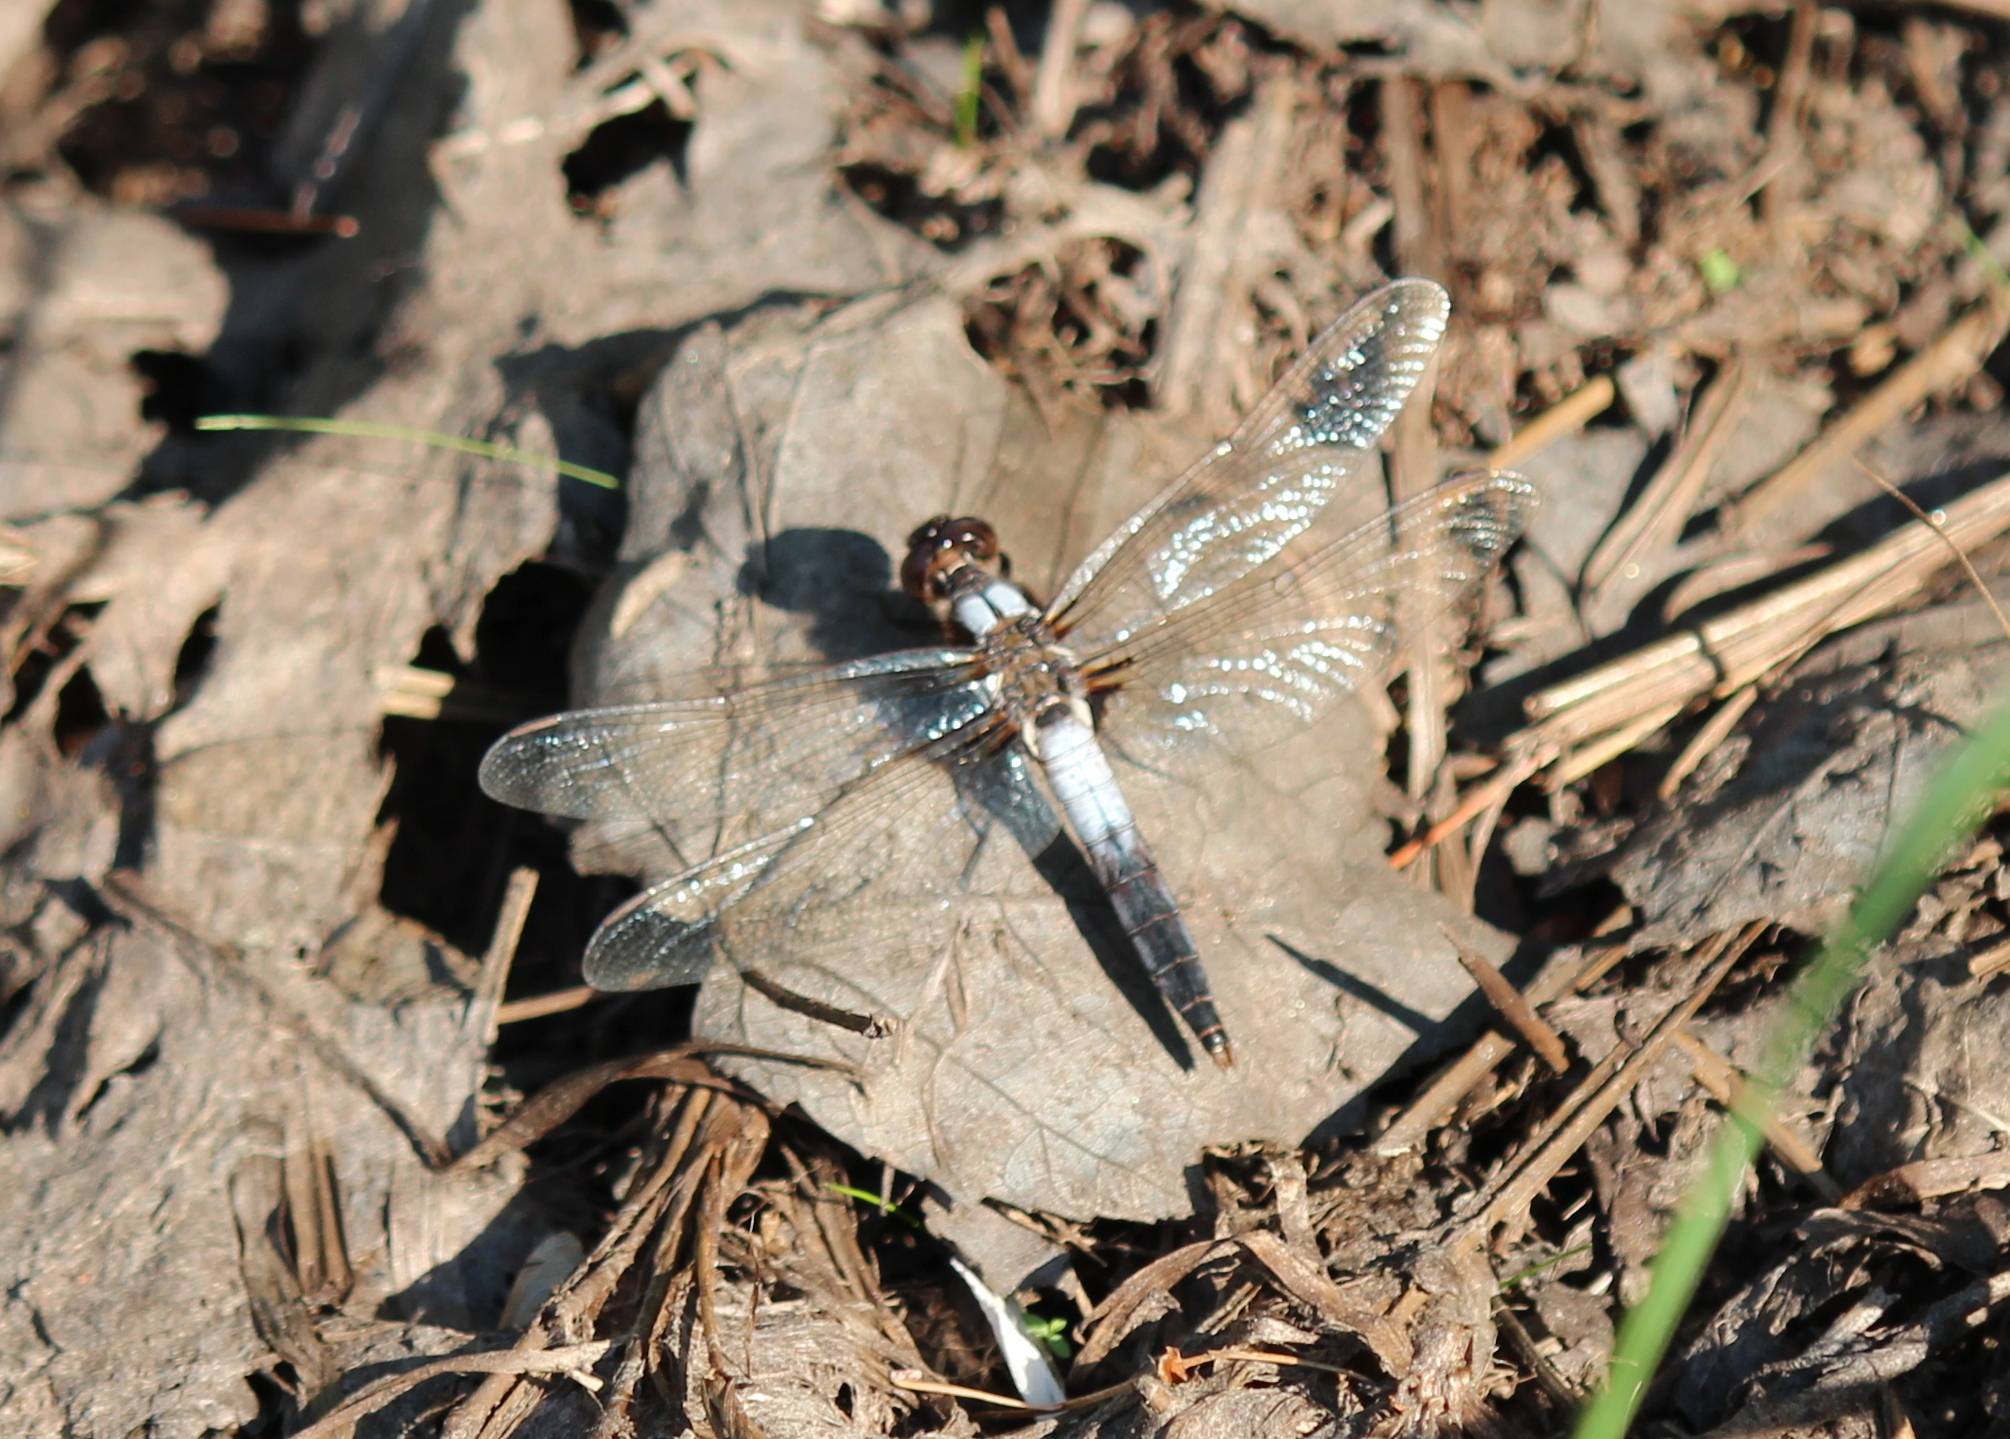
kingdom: Animalia
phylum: Arthropoda
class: Insecta
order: Odonata
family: Libellulidae
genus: Ladona
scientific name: Ladona julia
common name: Chalk-fronted corporal
